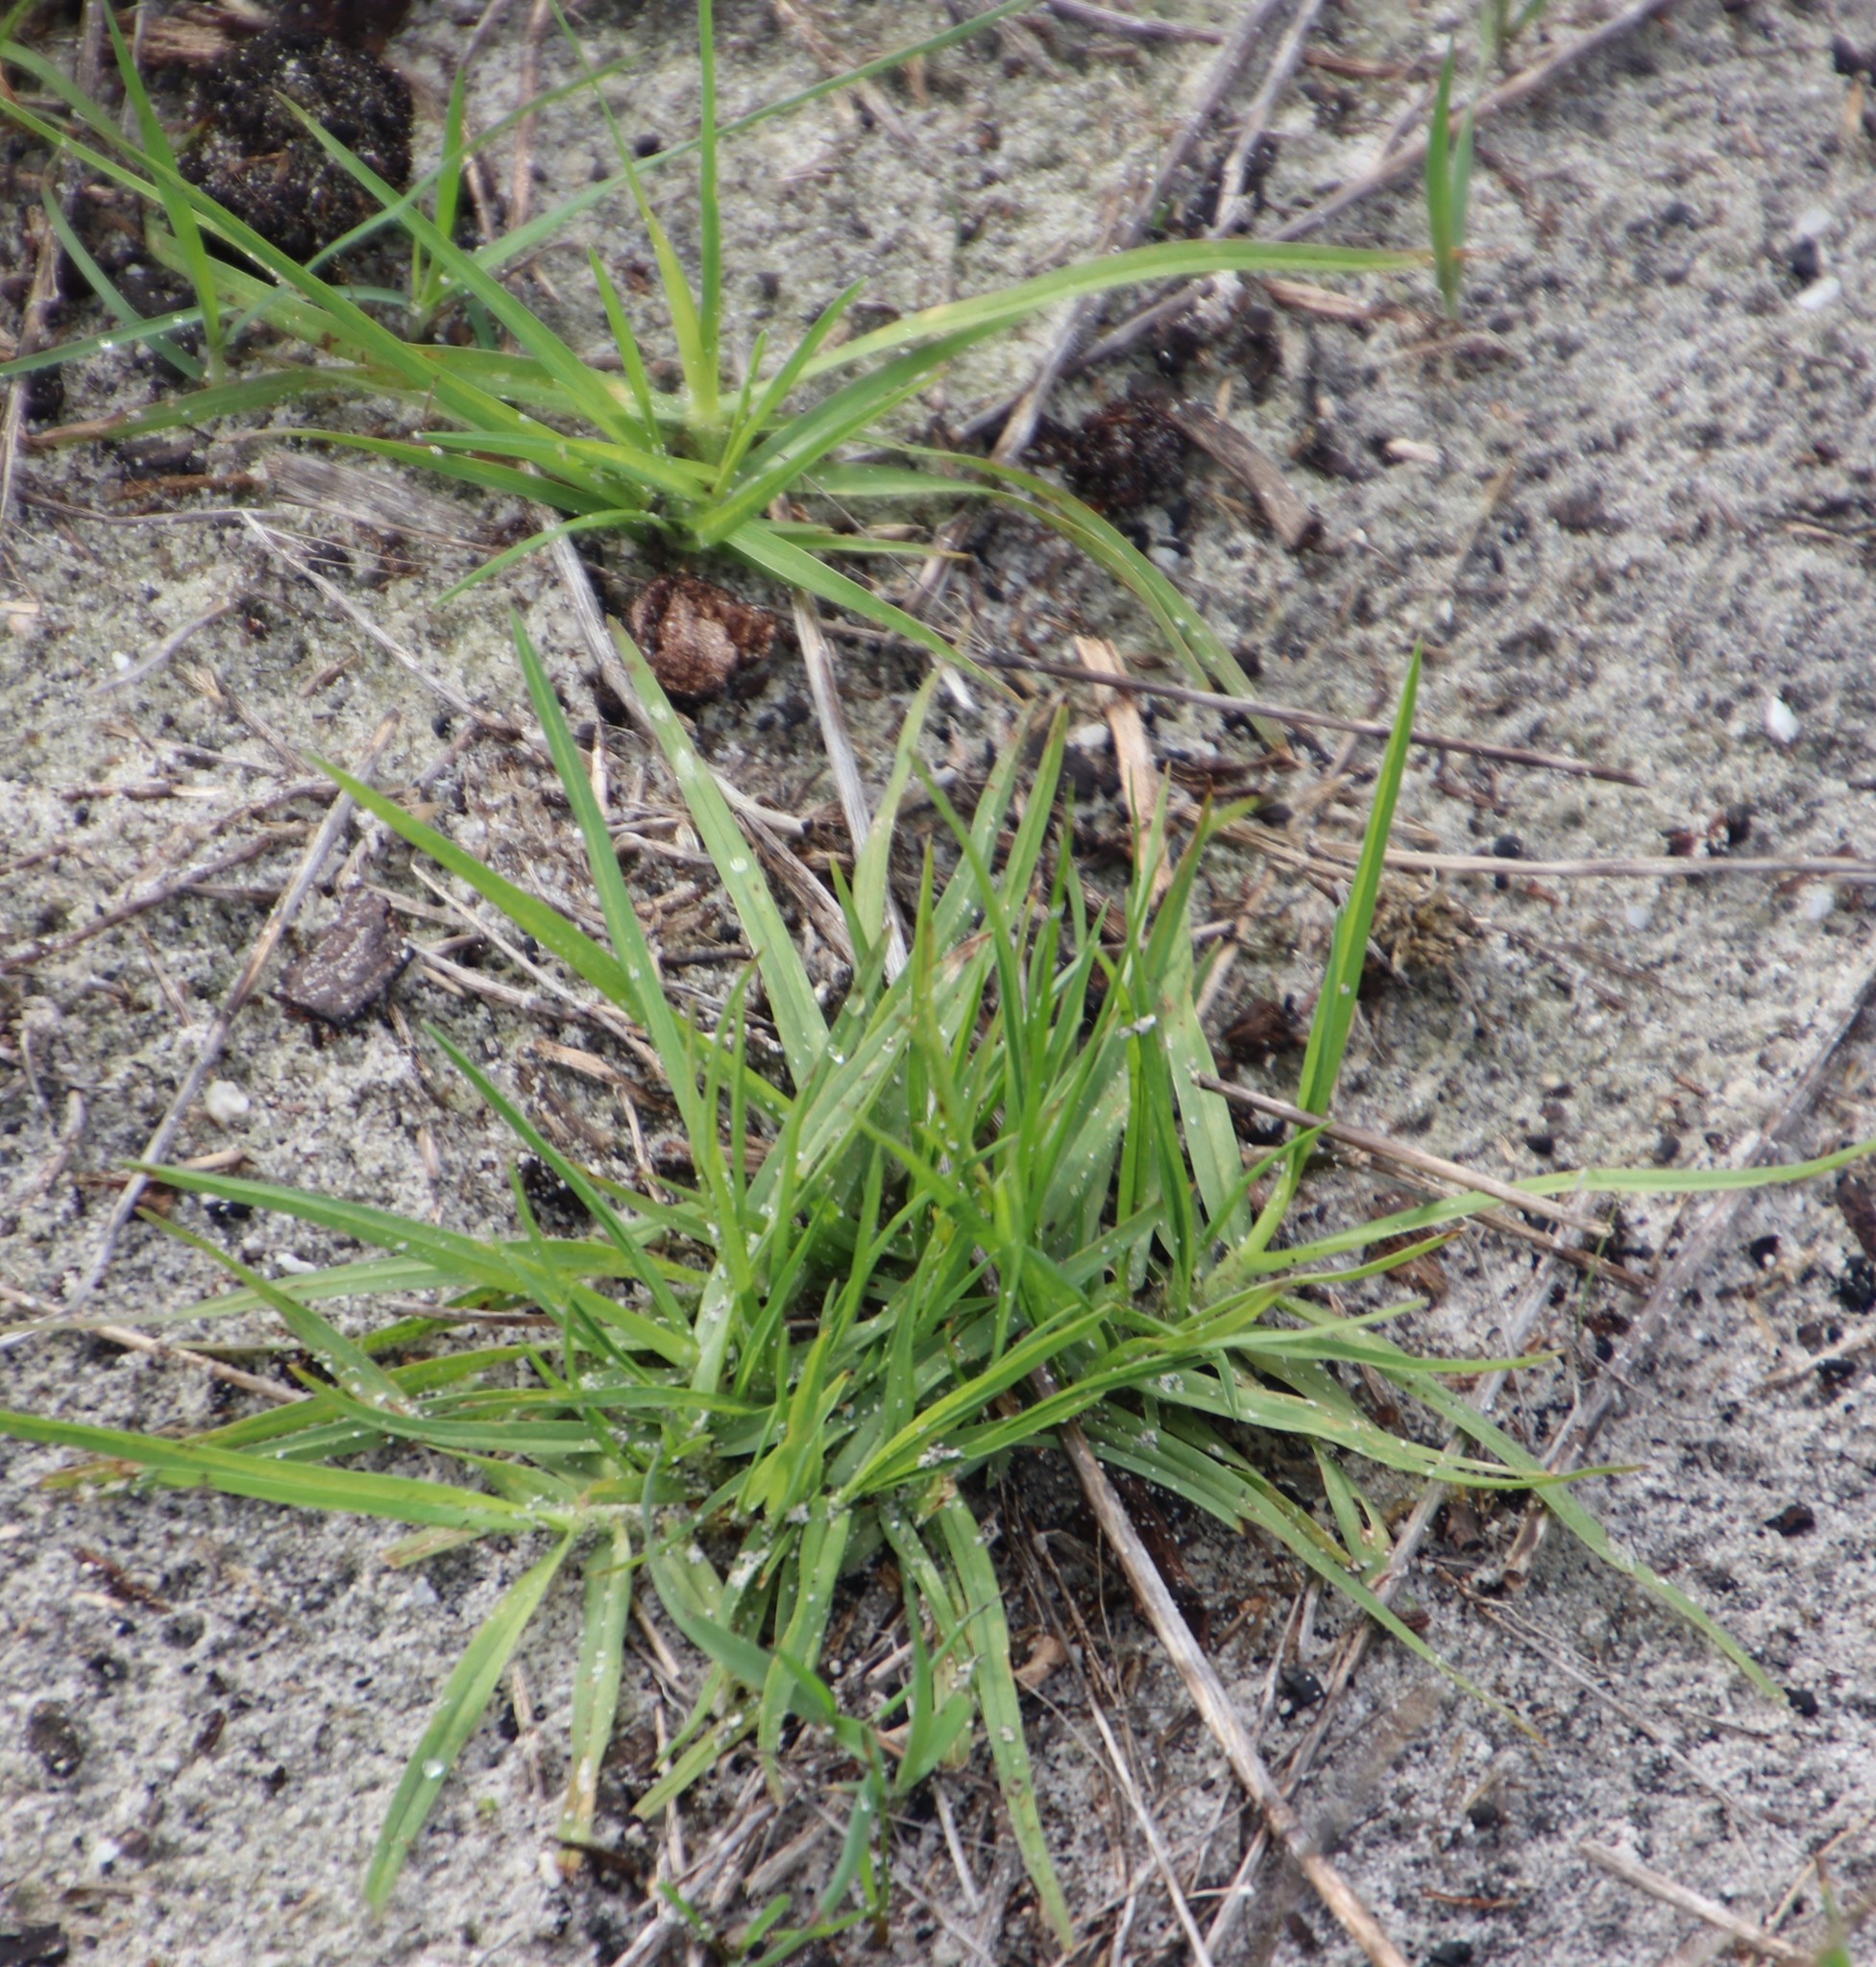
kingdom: Plantae
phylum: Tracheophyta
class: Liliopsida
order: Poales
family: Poaceae
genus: Cenchrus
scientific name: Cenchrus clandestinus
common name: Kikuyugrass
